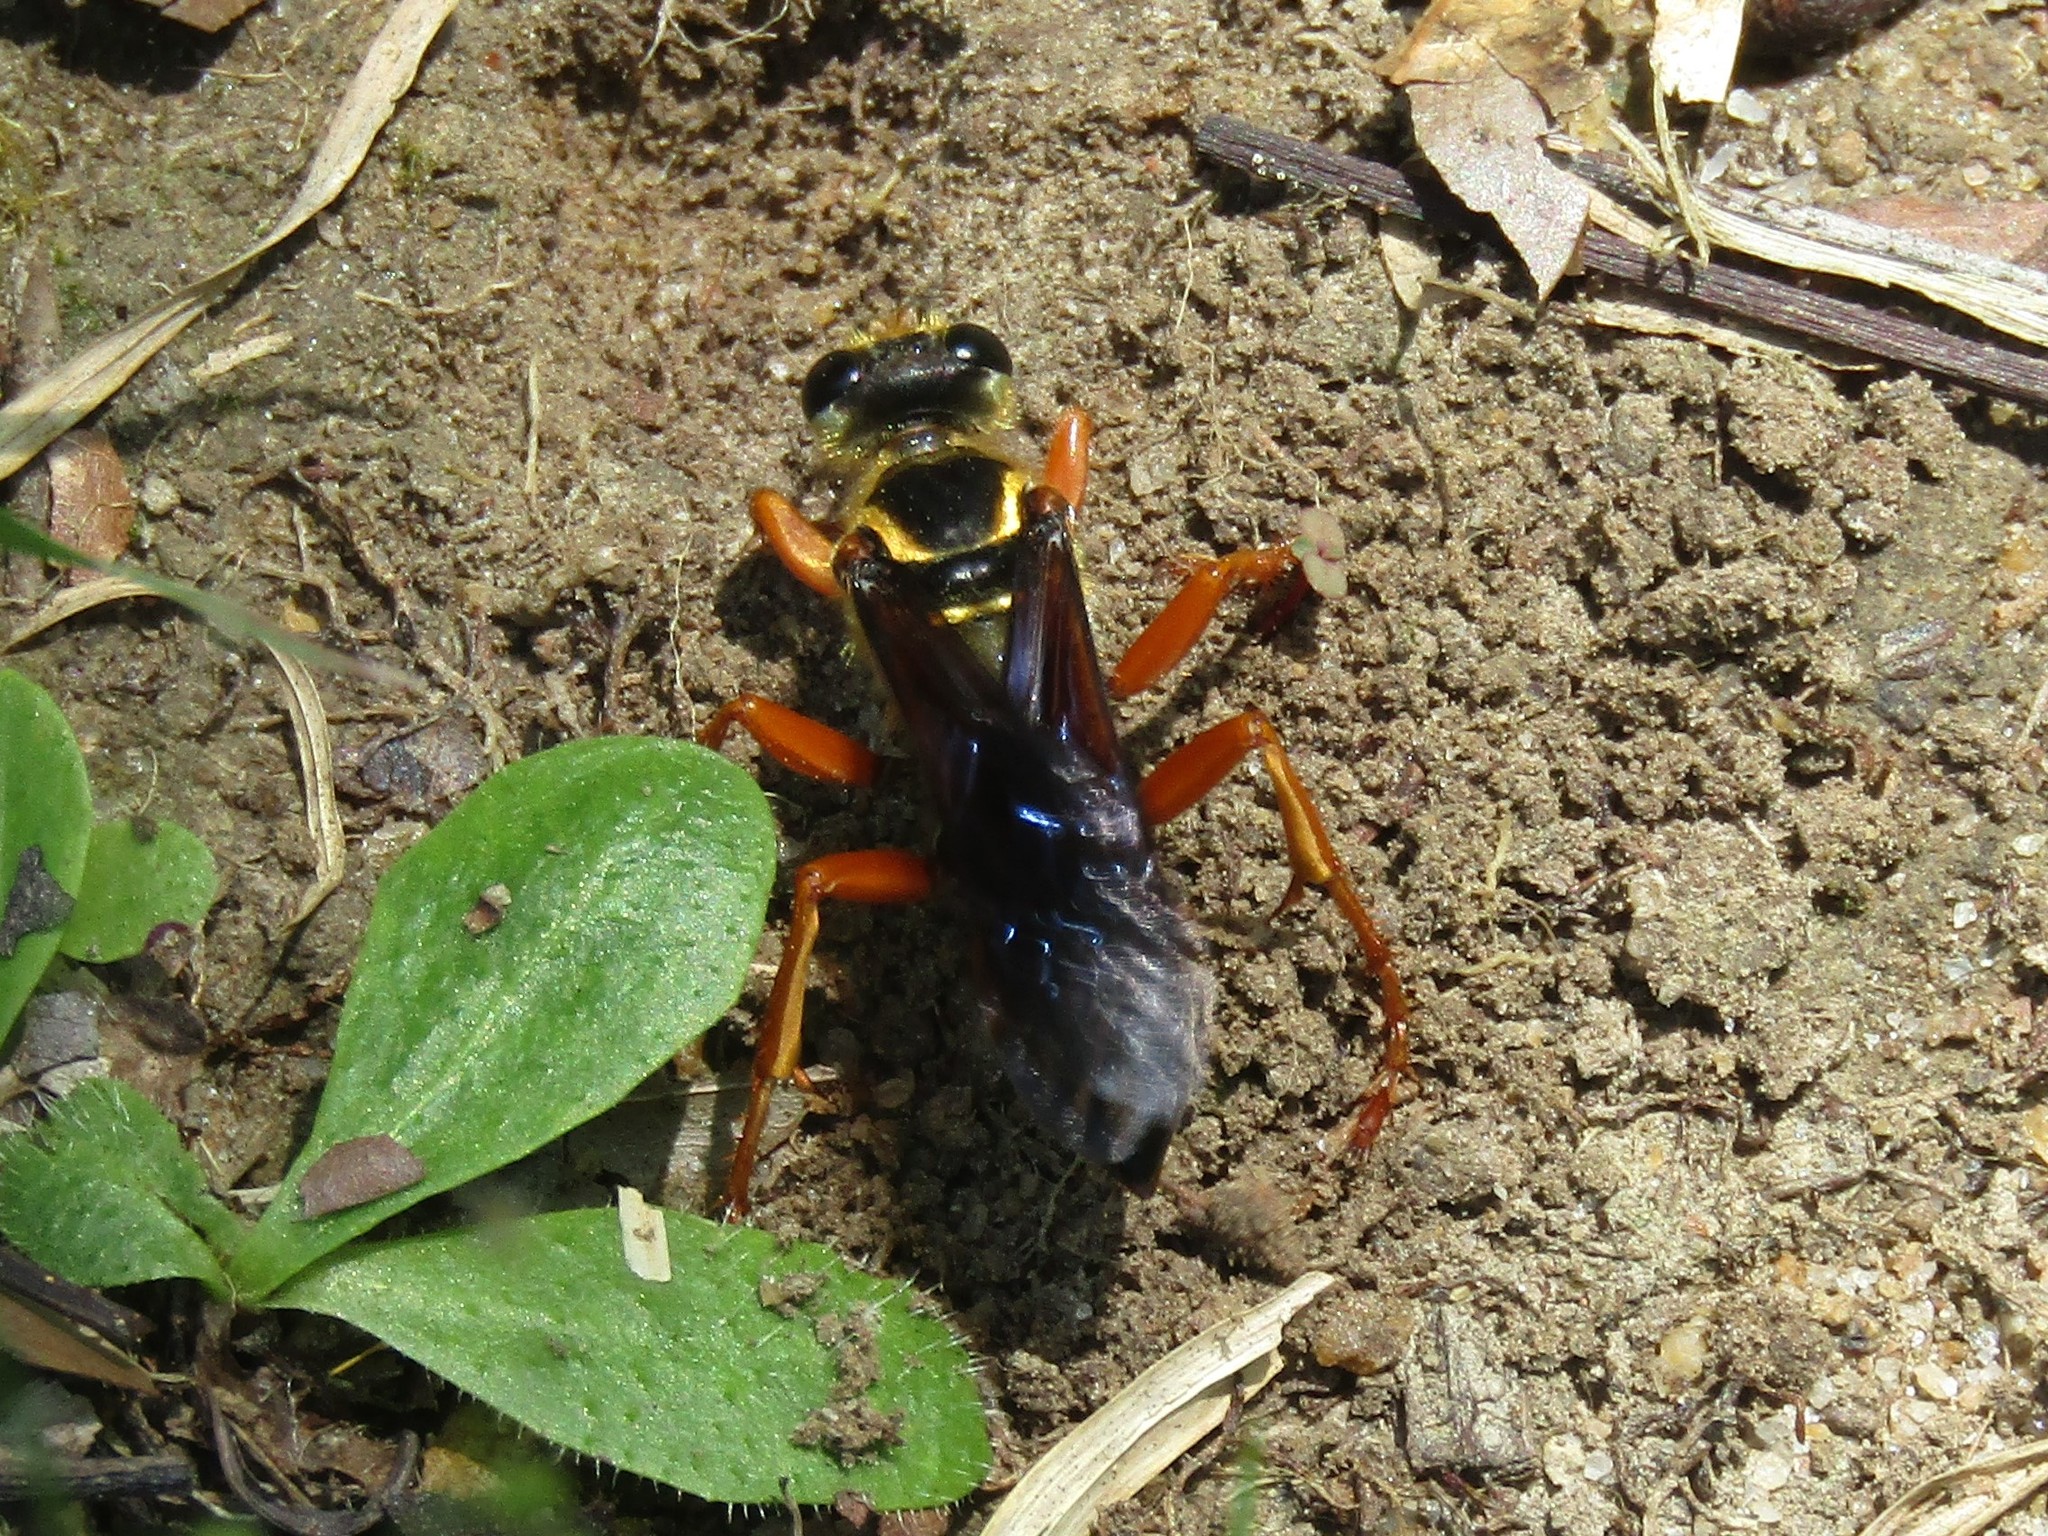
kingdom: Animalia
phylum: Arthropoda
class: Insecta
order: Hymenoptera
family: Sphecidae
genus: Sphex
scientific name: Sphex ichneumoneus
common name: Great golden digger wasp
